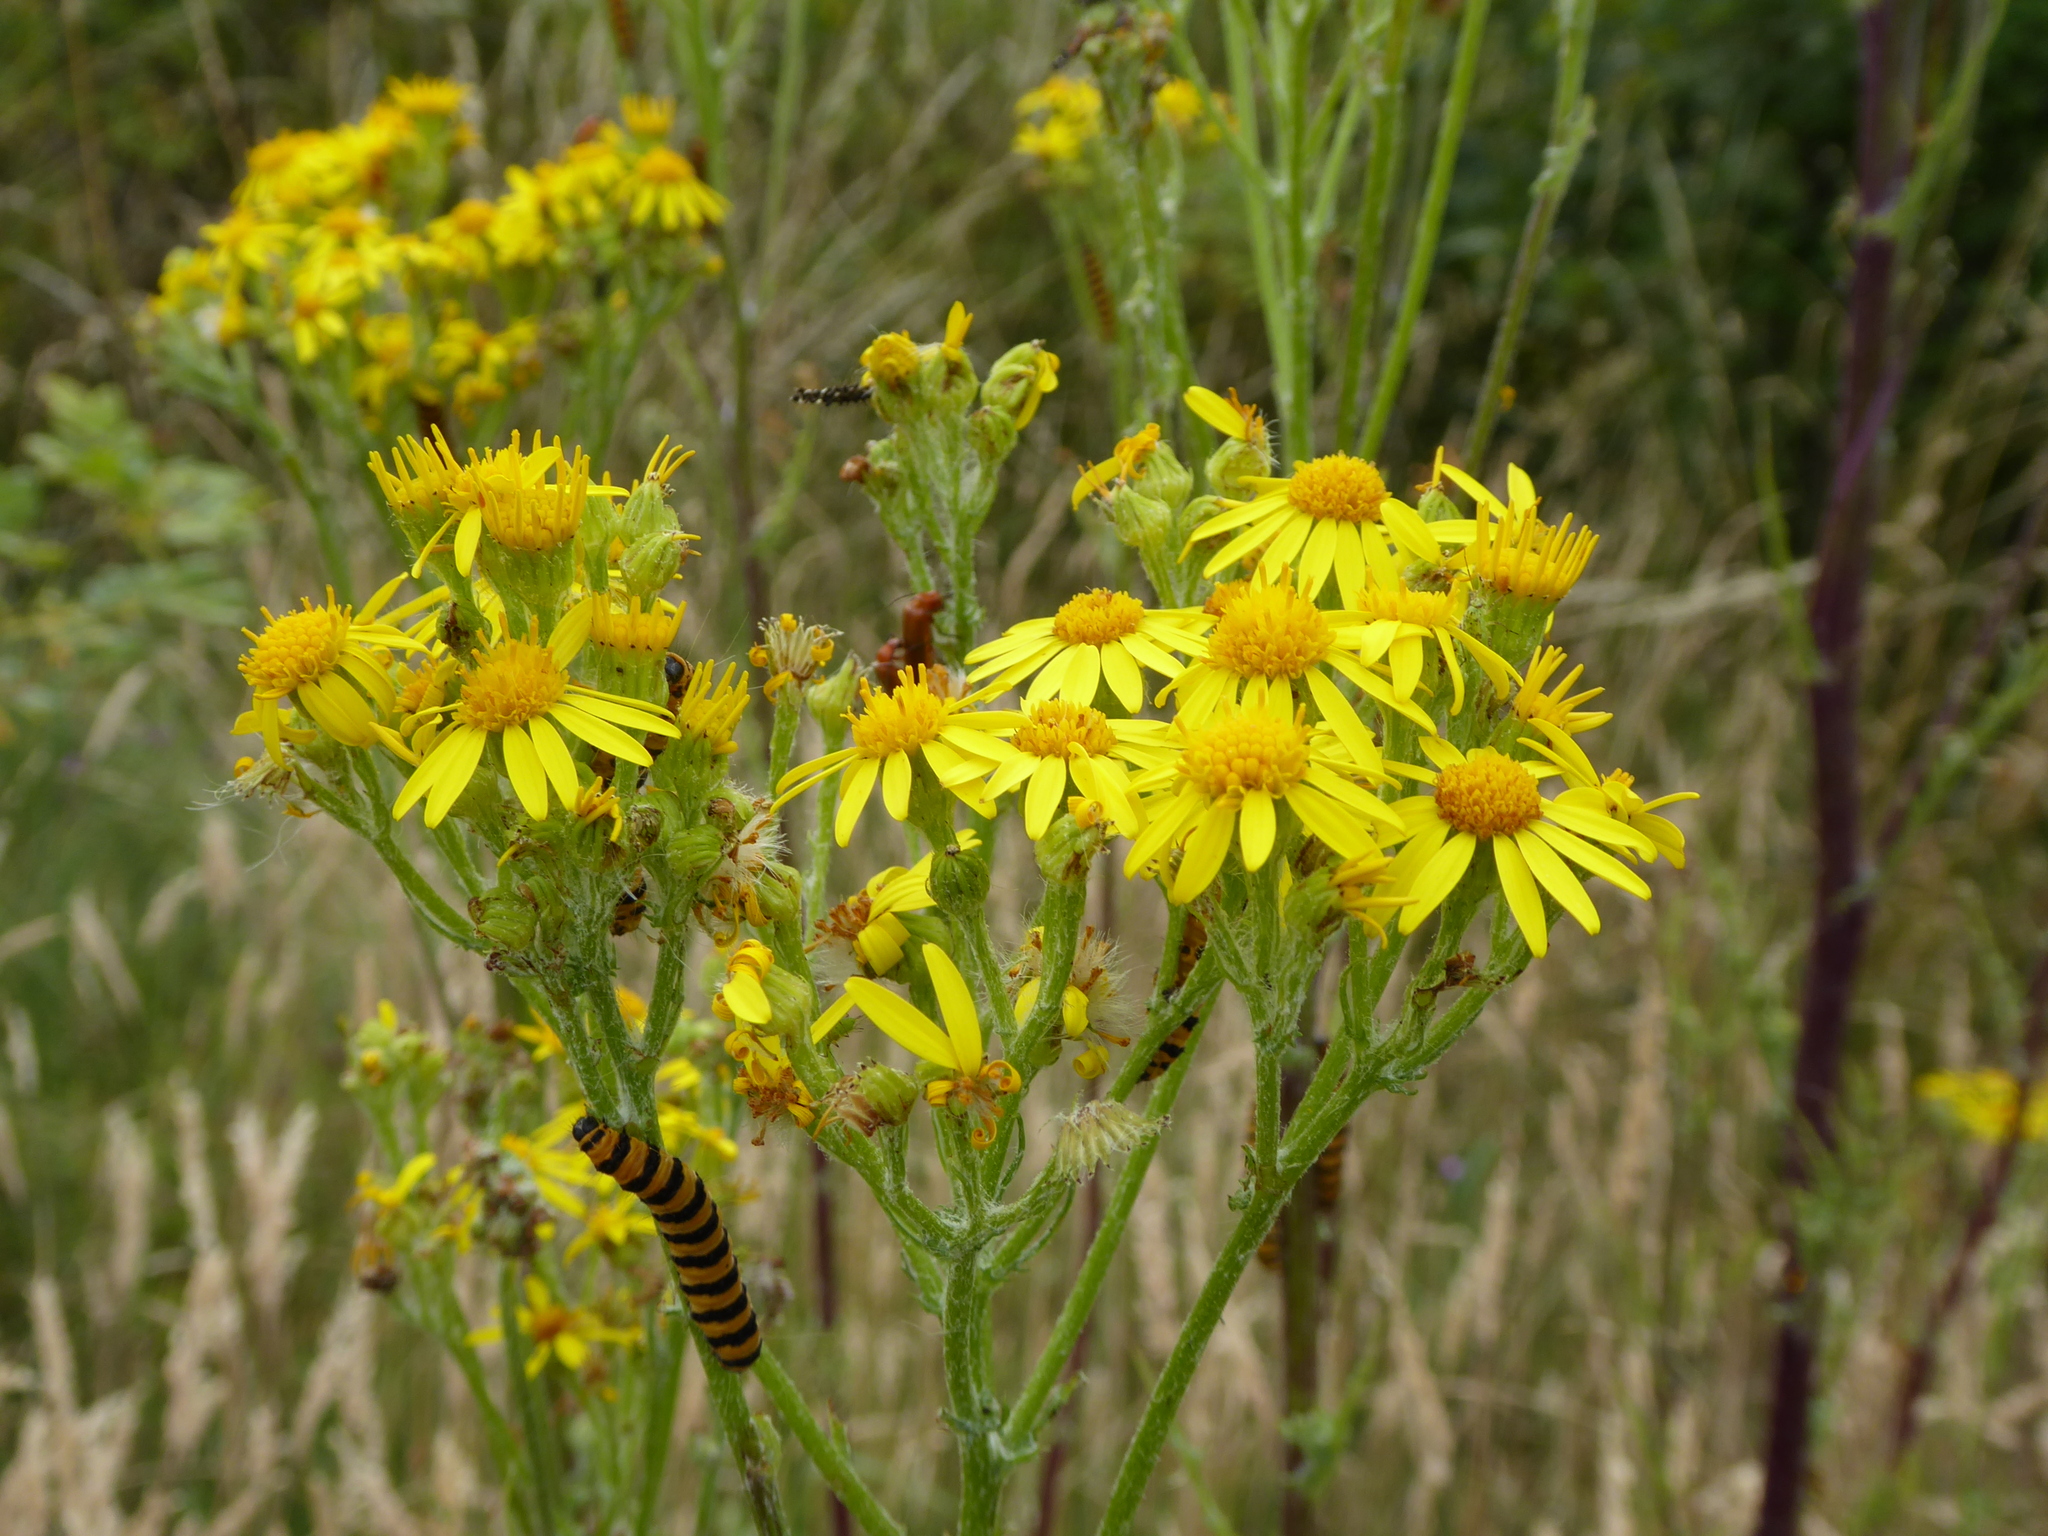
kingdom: Plantae
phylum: Tracheophyta
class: Magnoliopsida
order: Asterales
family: Asteraceae
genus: Jacobaea
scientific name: Jacobaea vulgaris
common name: Stinking willie
